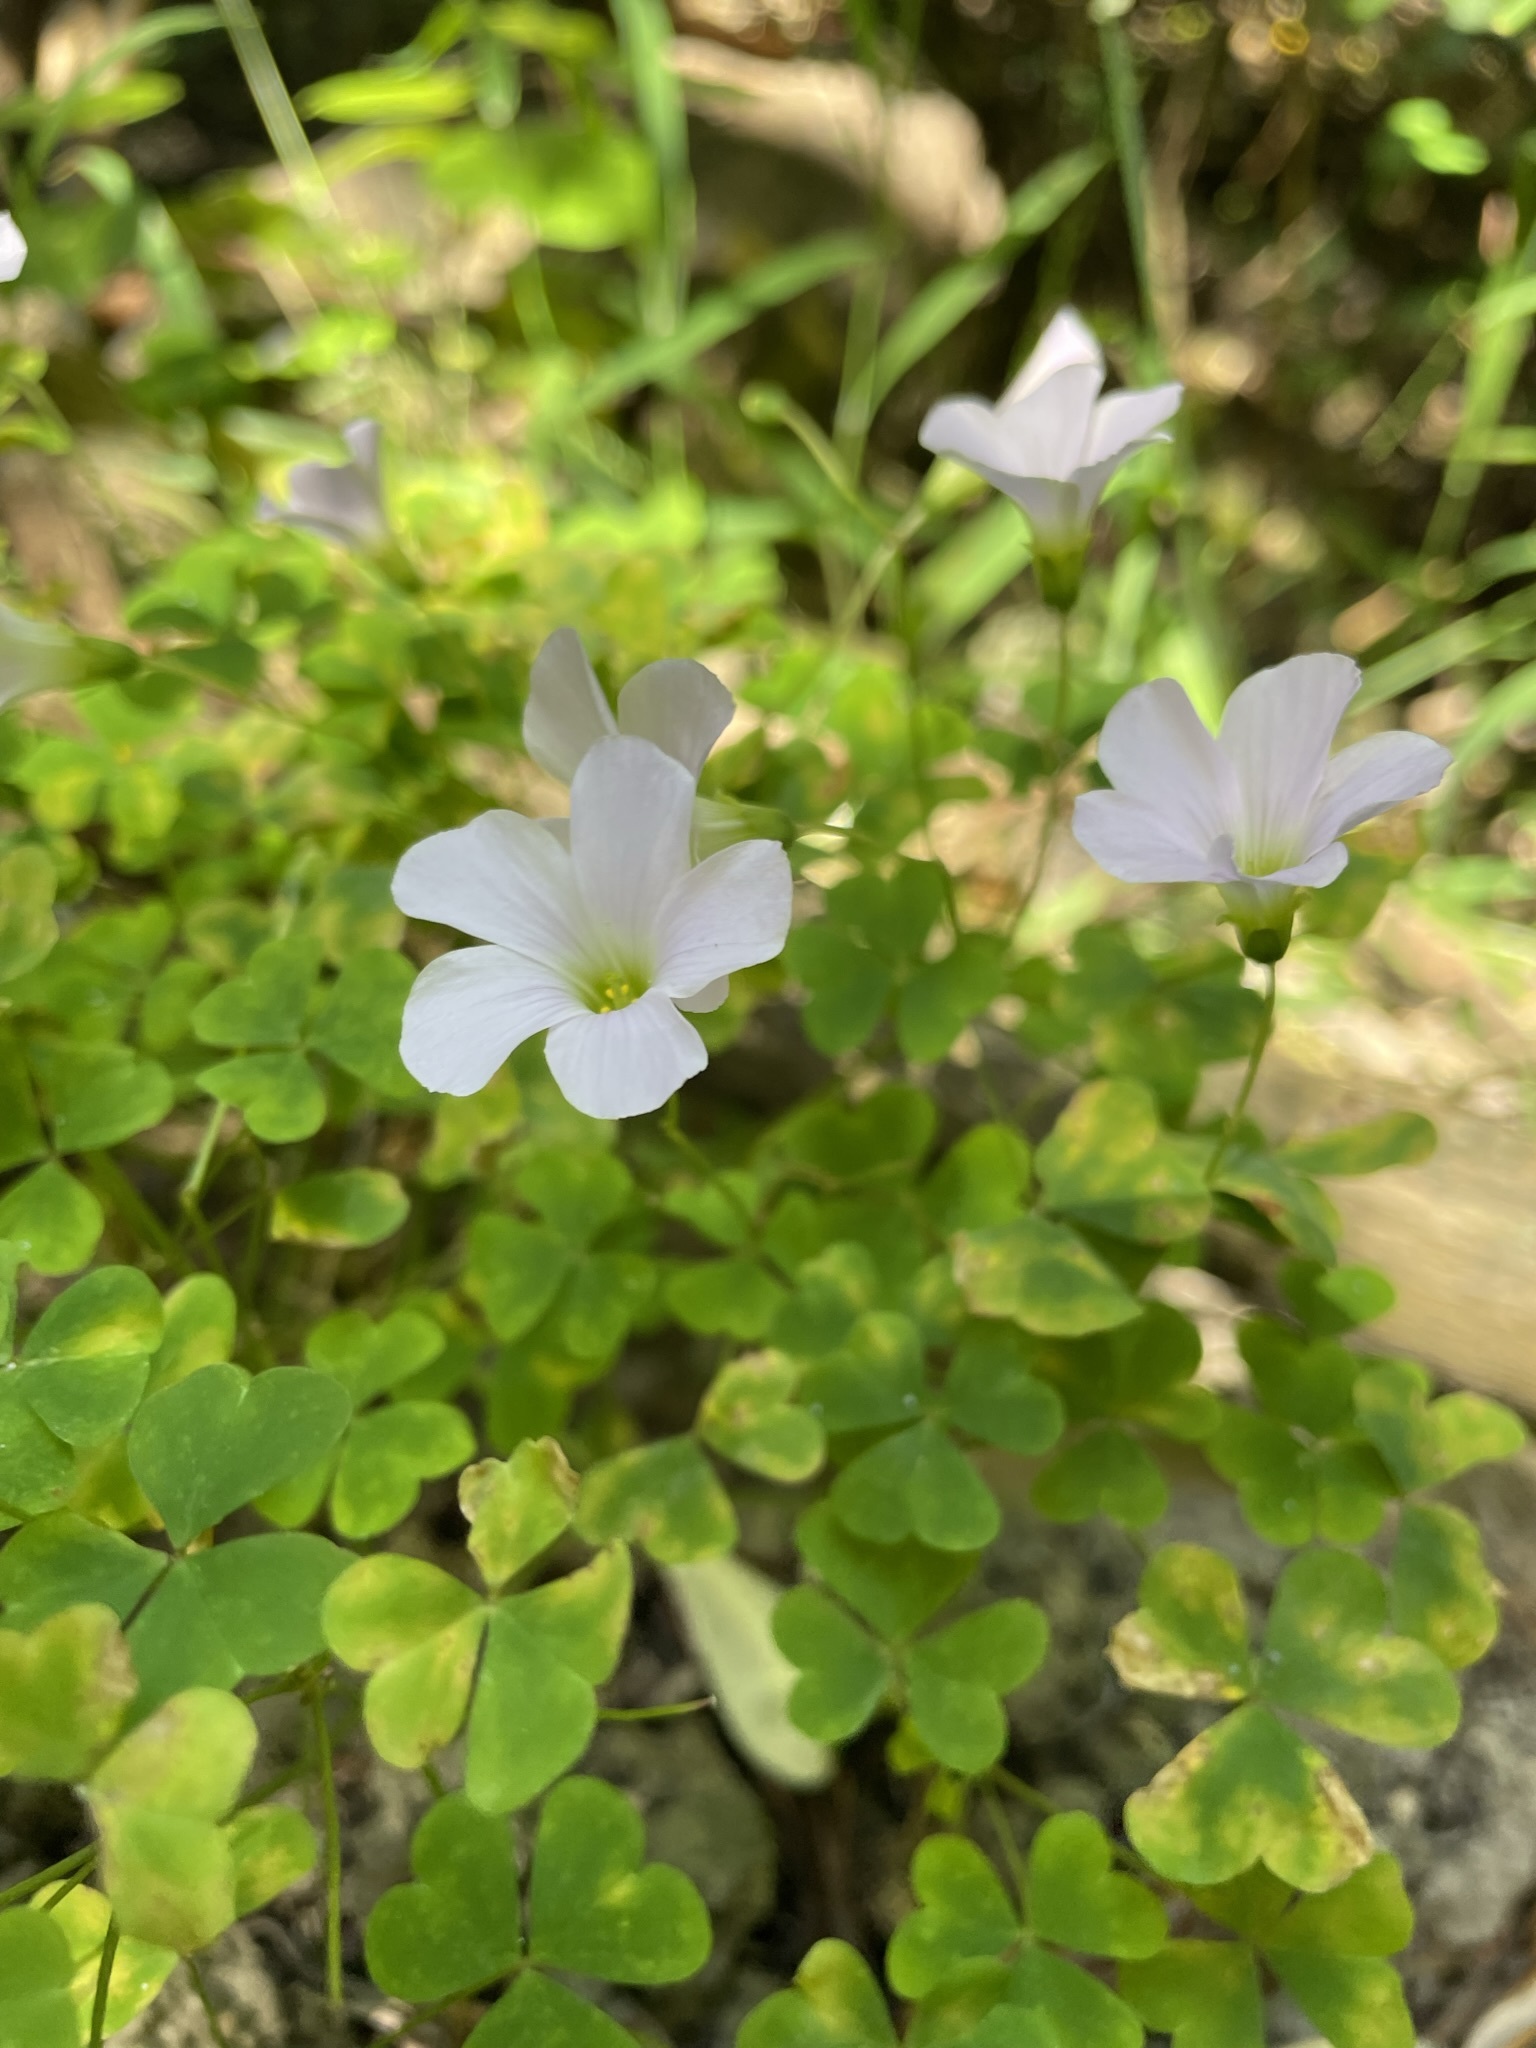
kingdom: Plantae
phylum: Tracheophyta
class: Magnoliopsida
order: Oxalidales
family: Oxalidaceae
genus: Oxalis
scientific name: Oxalis incarnata
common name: Pale pink-sorrel
